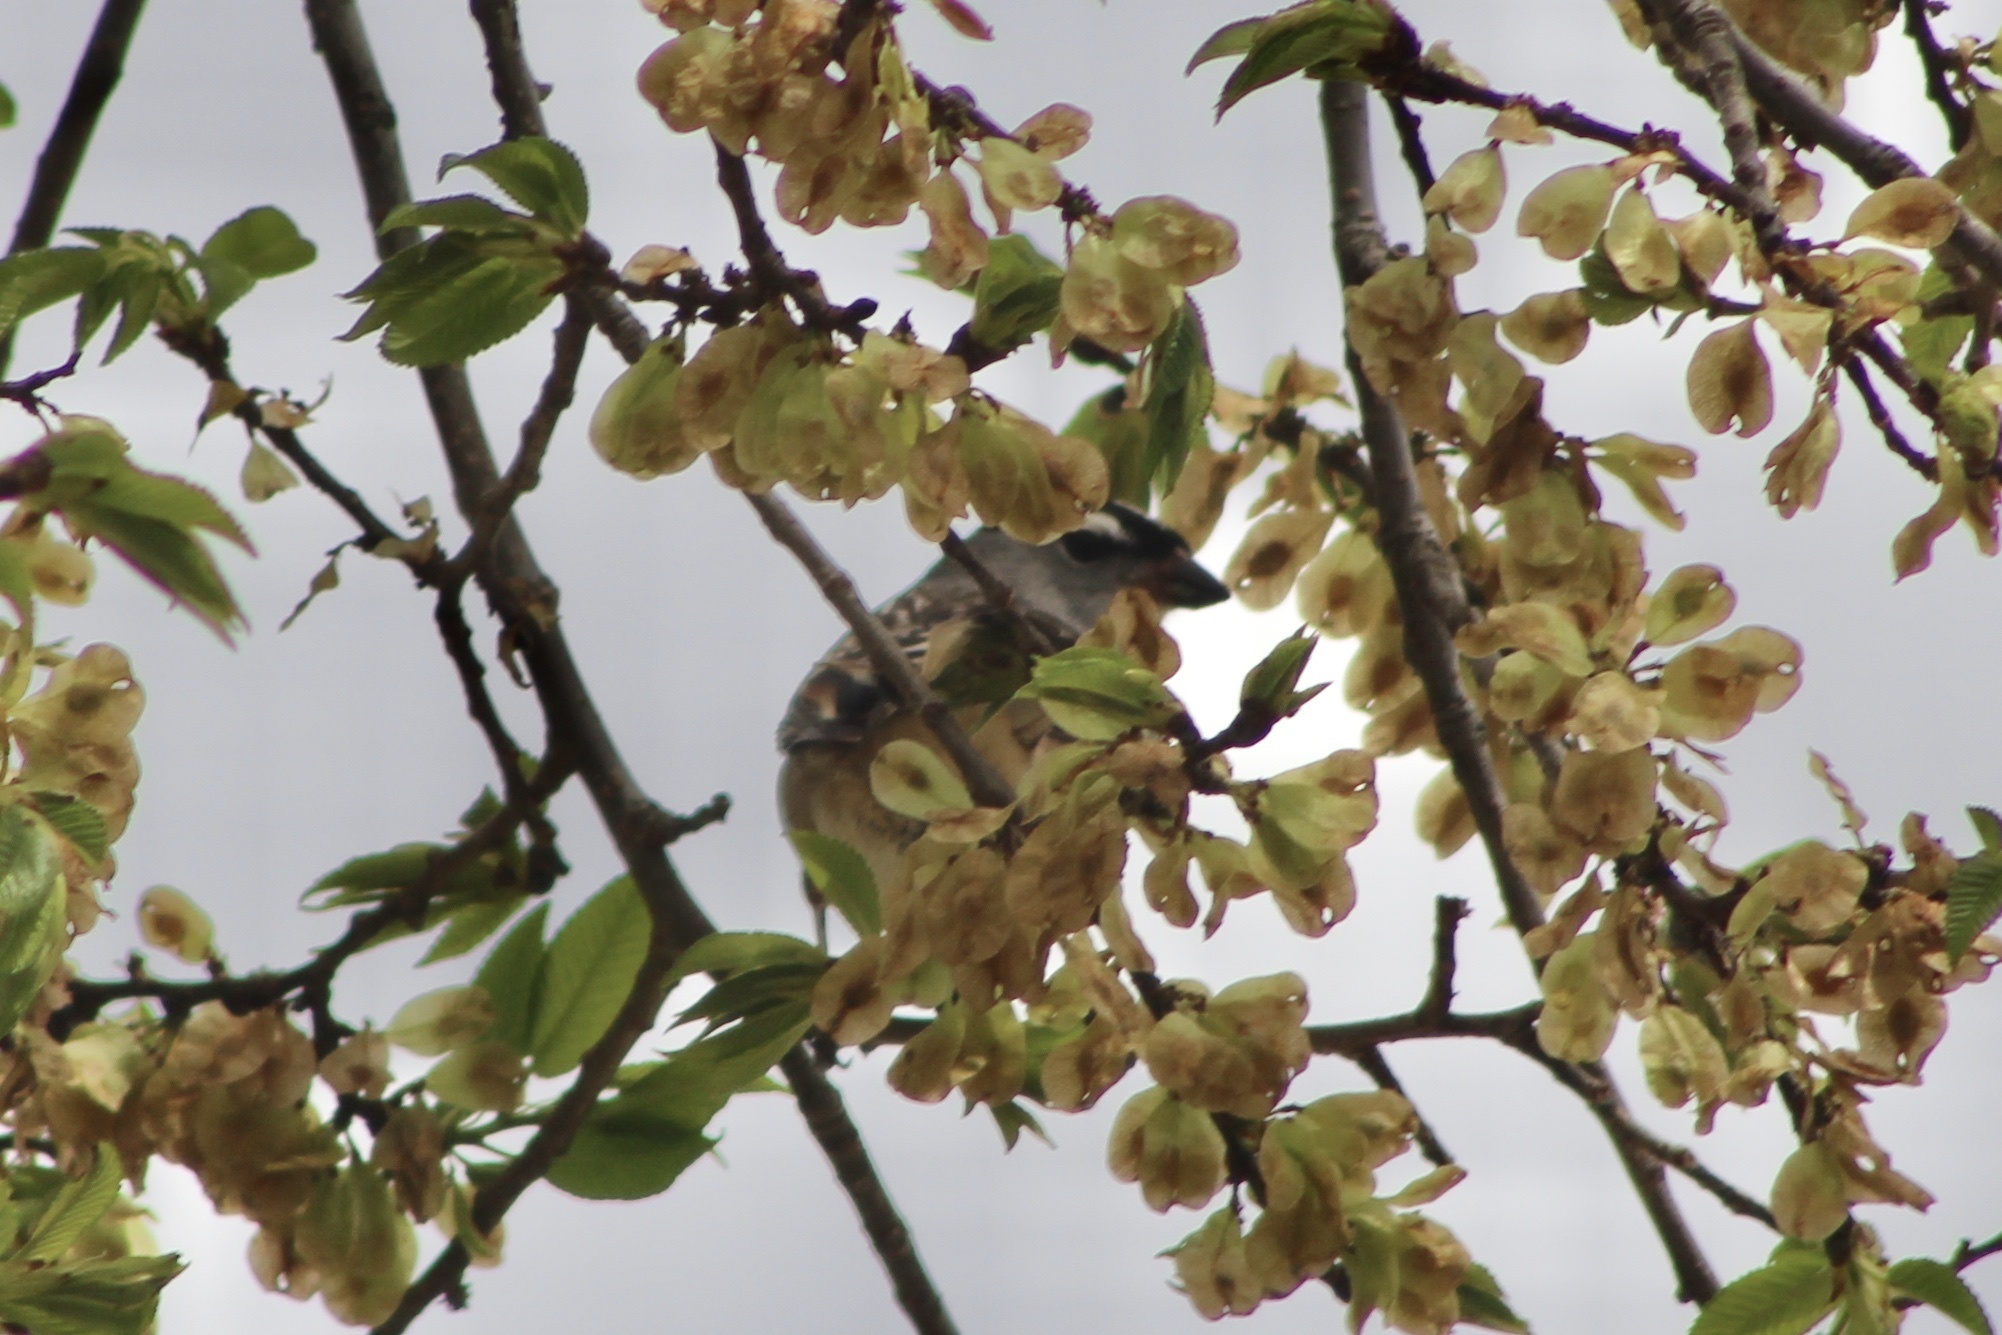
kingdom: Animalia
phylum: Chordata
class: Aves
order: Passeriformes
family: Passerellidae
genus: Zonotrichia
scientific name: Zonotrichia leucophrys
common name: White-crowned sparrow
